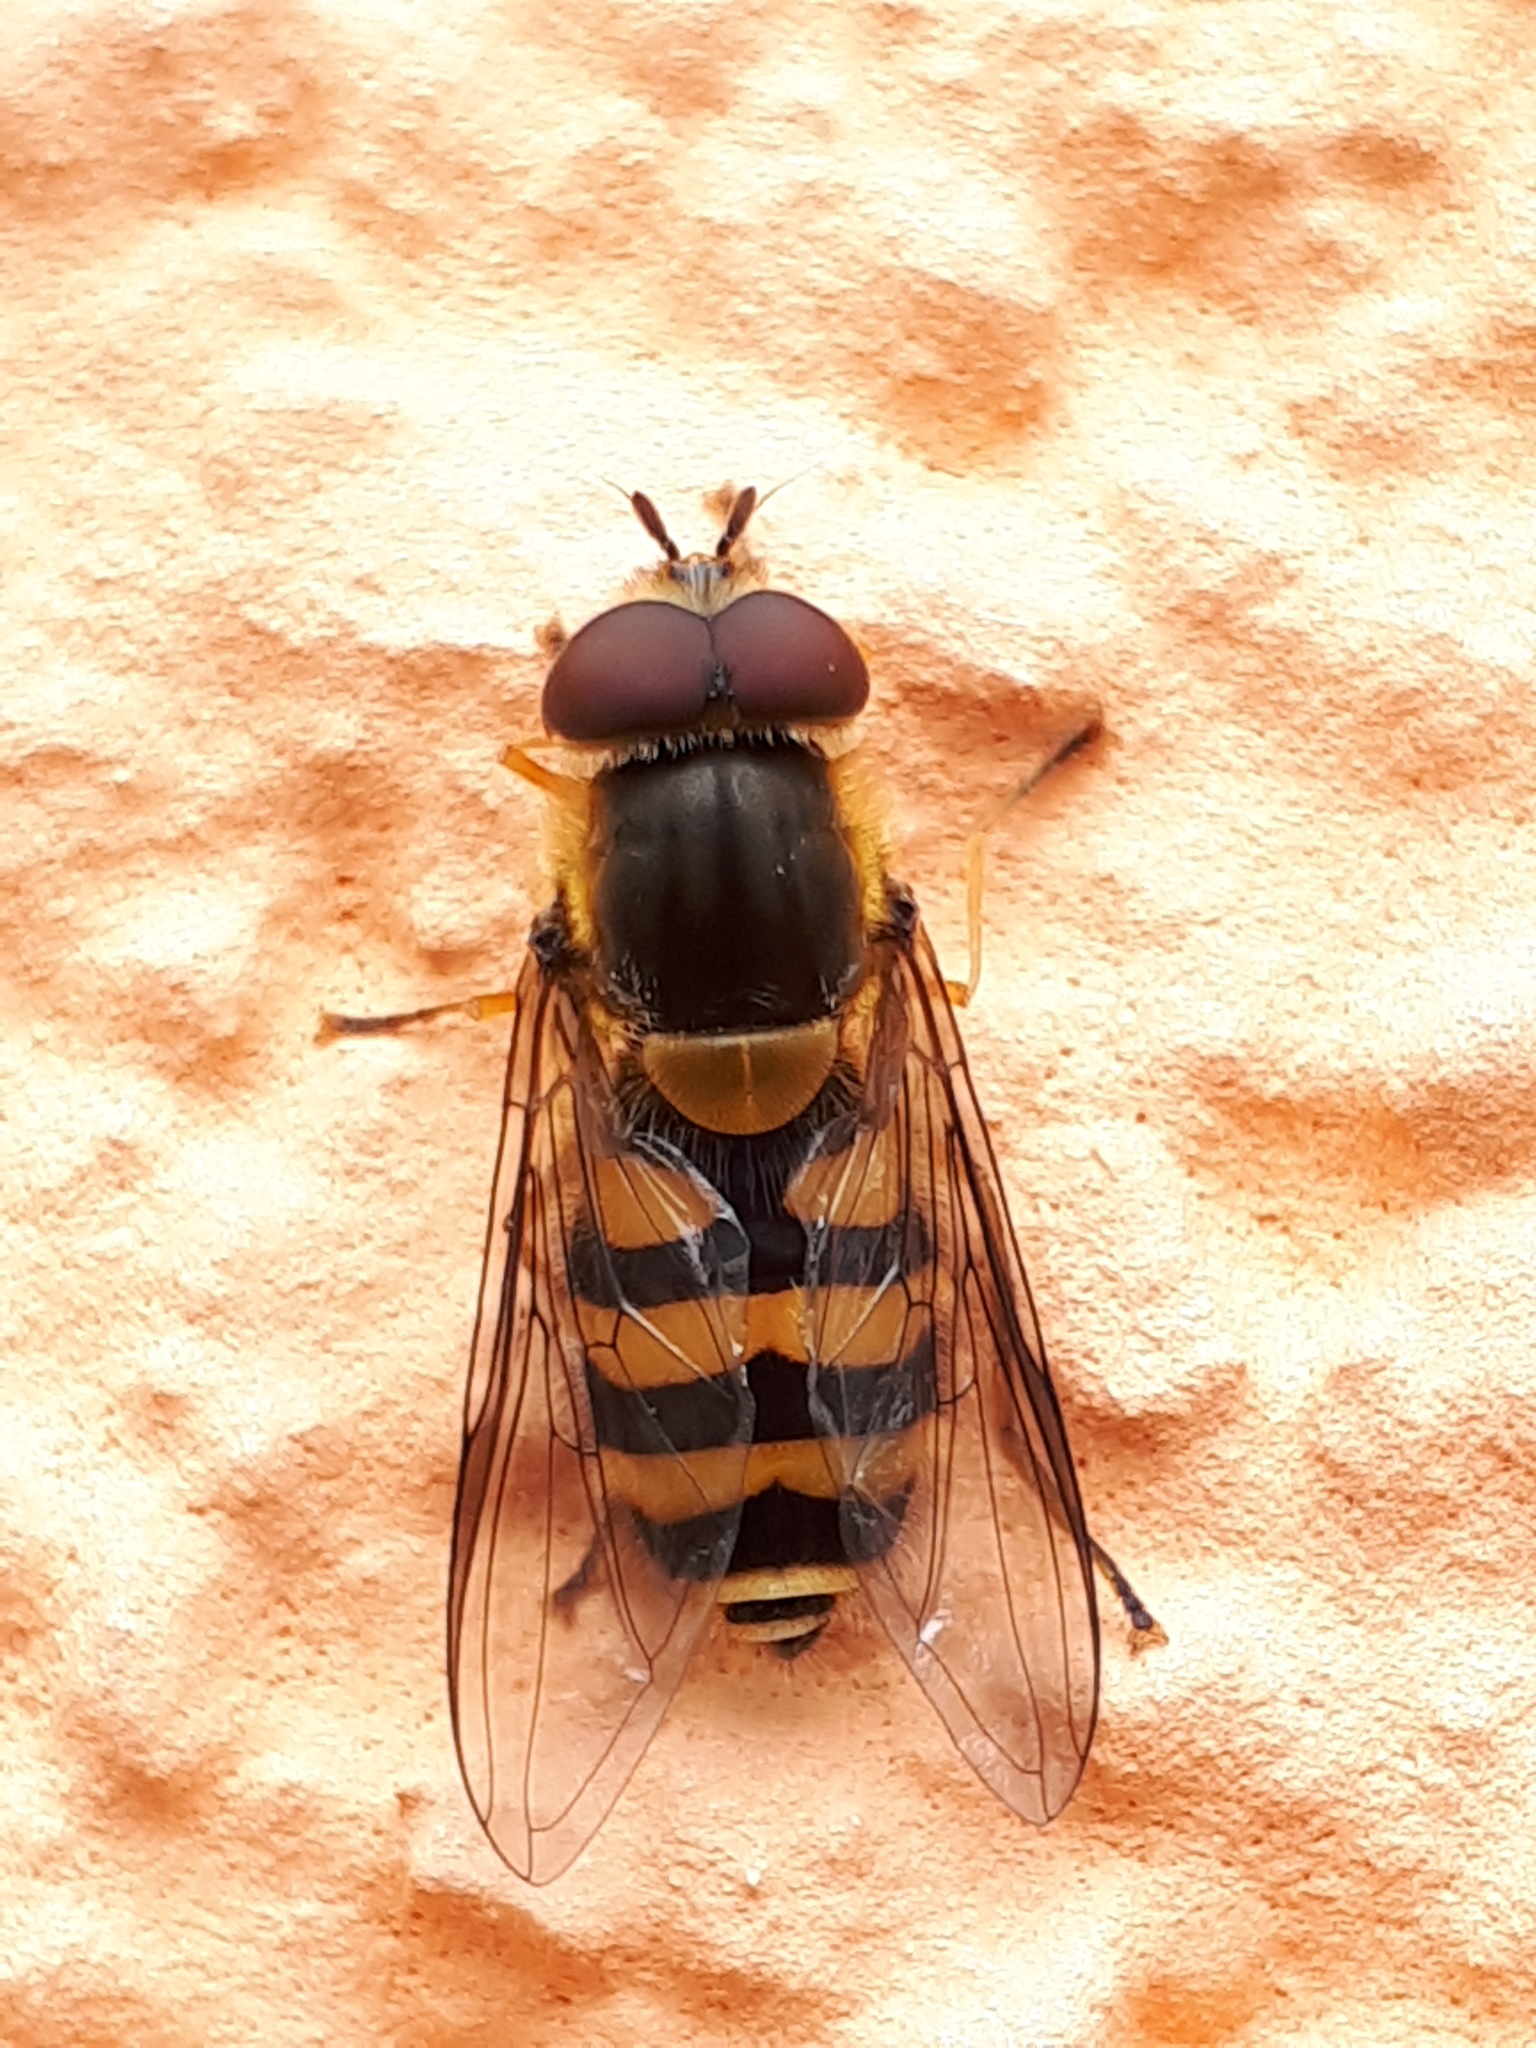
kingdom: Animalia
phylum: Arthropoda
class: Insecta
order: Diptera
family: Syrphidae
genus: Syrphus
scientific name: Syrphus
